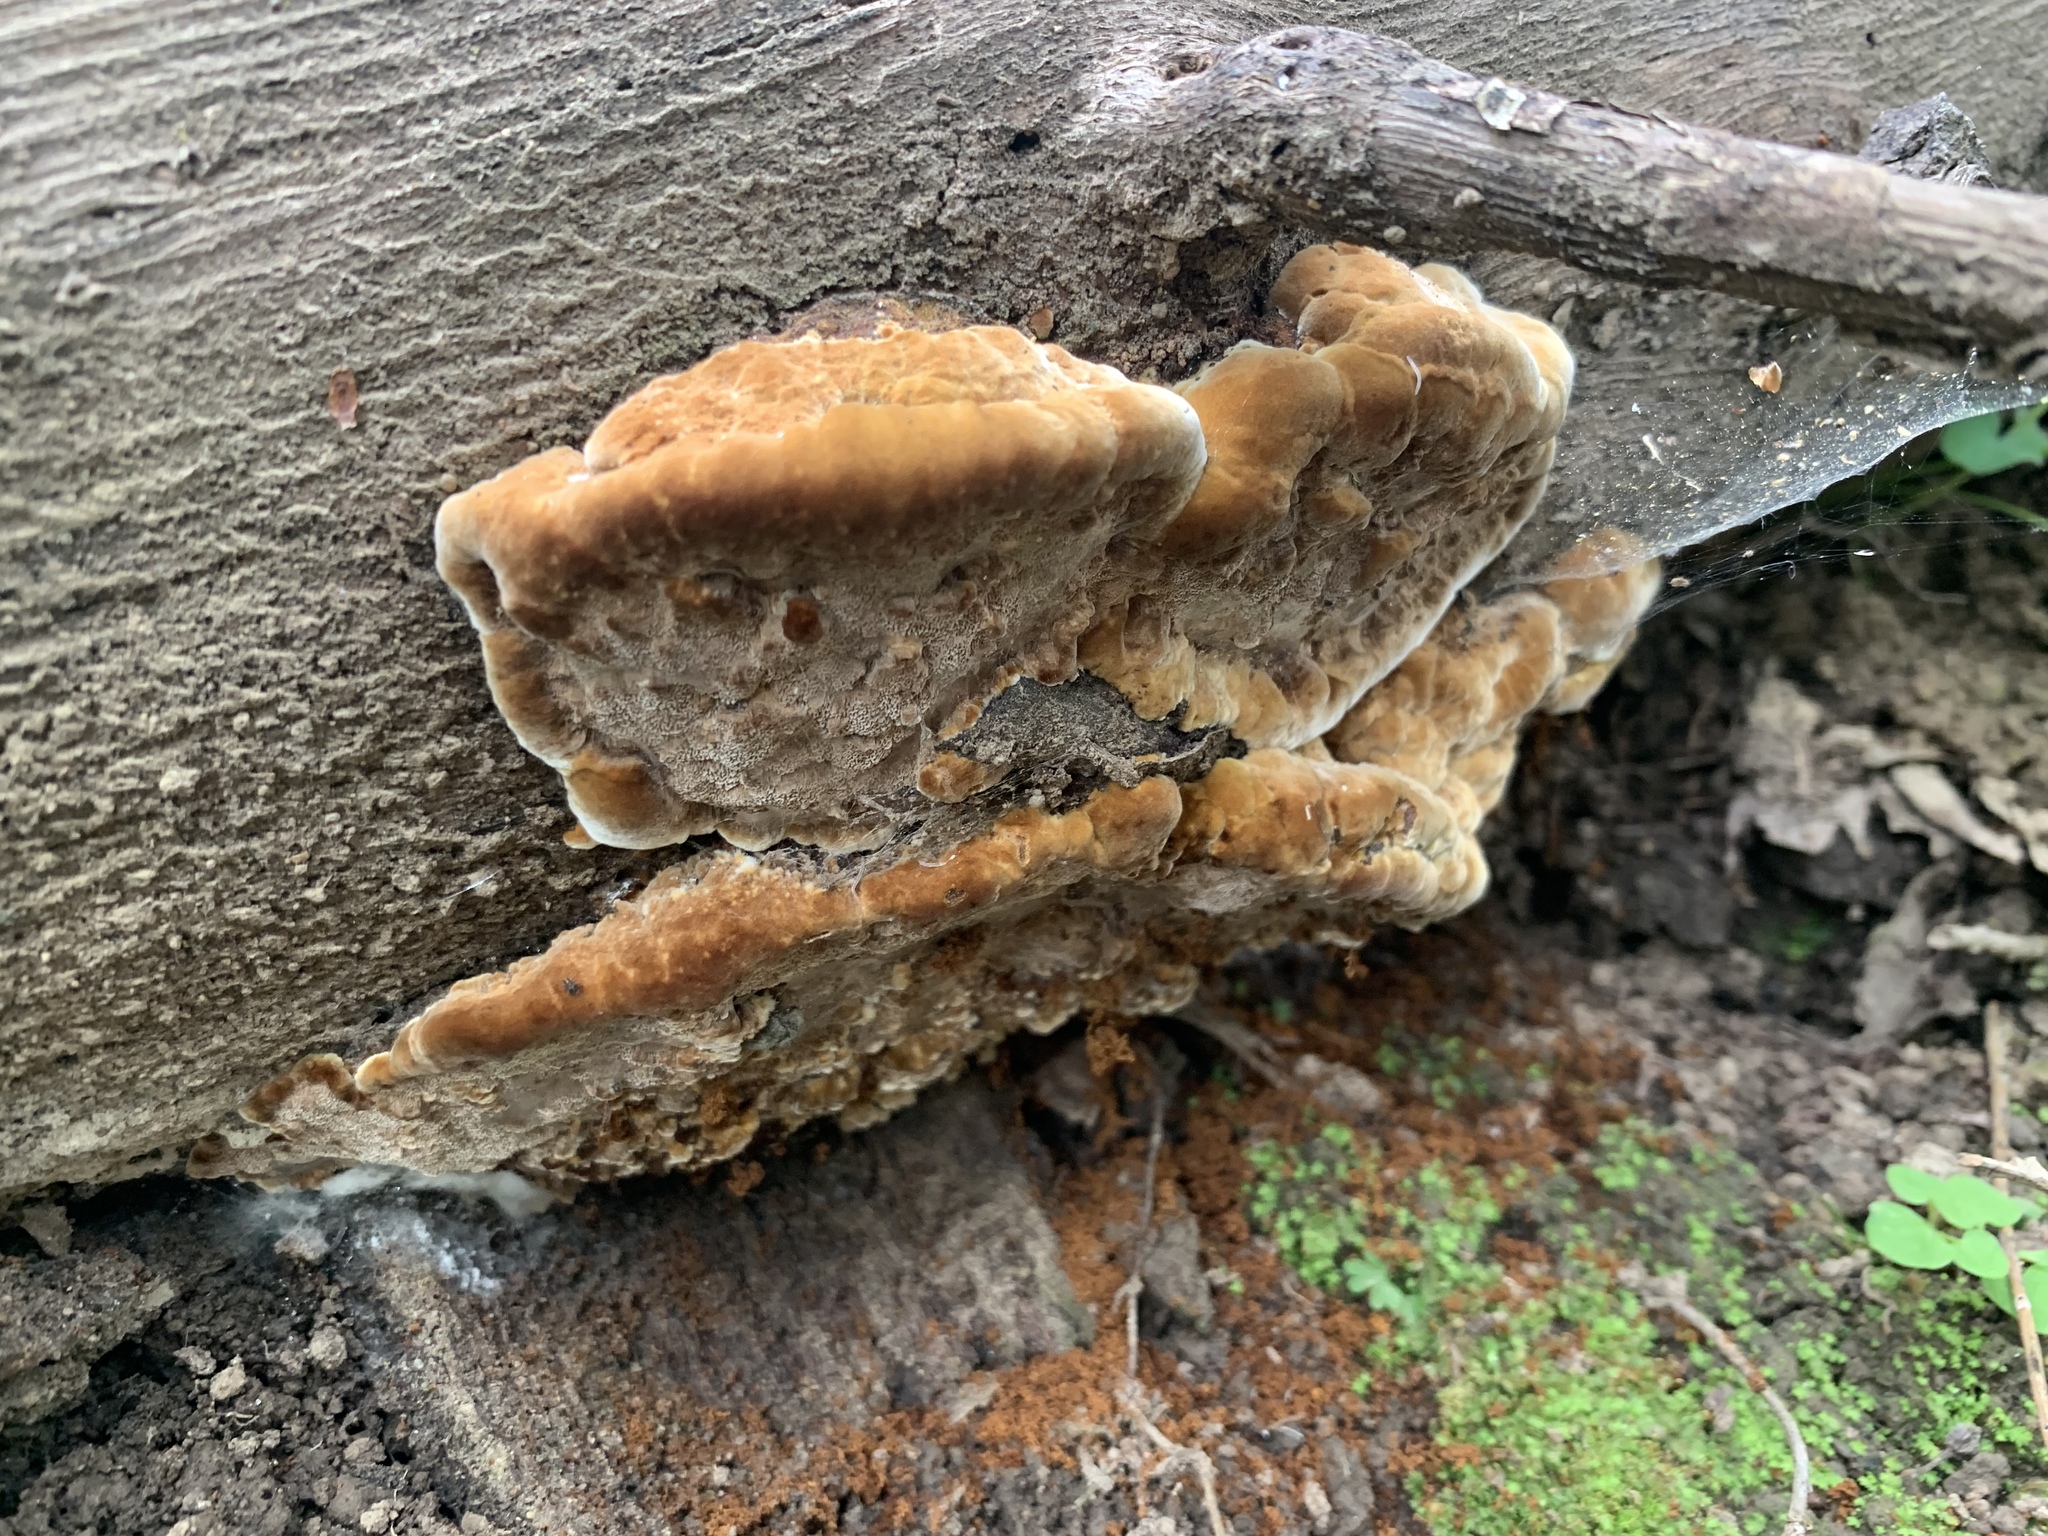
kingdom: Fungi
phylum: Basidiomycota
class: Agaricomycetes
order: Hymenochaetales
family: Hymenochaetaceae
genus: Phellinus
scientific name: Phellinus gilvus
